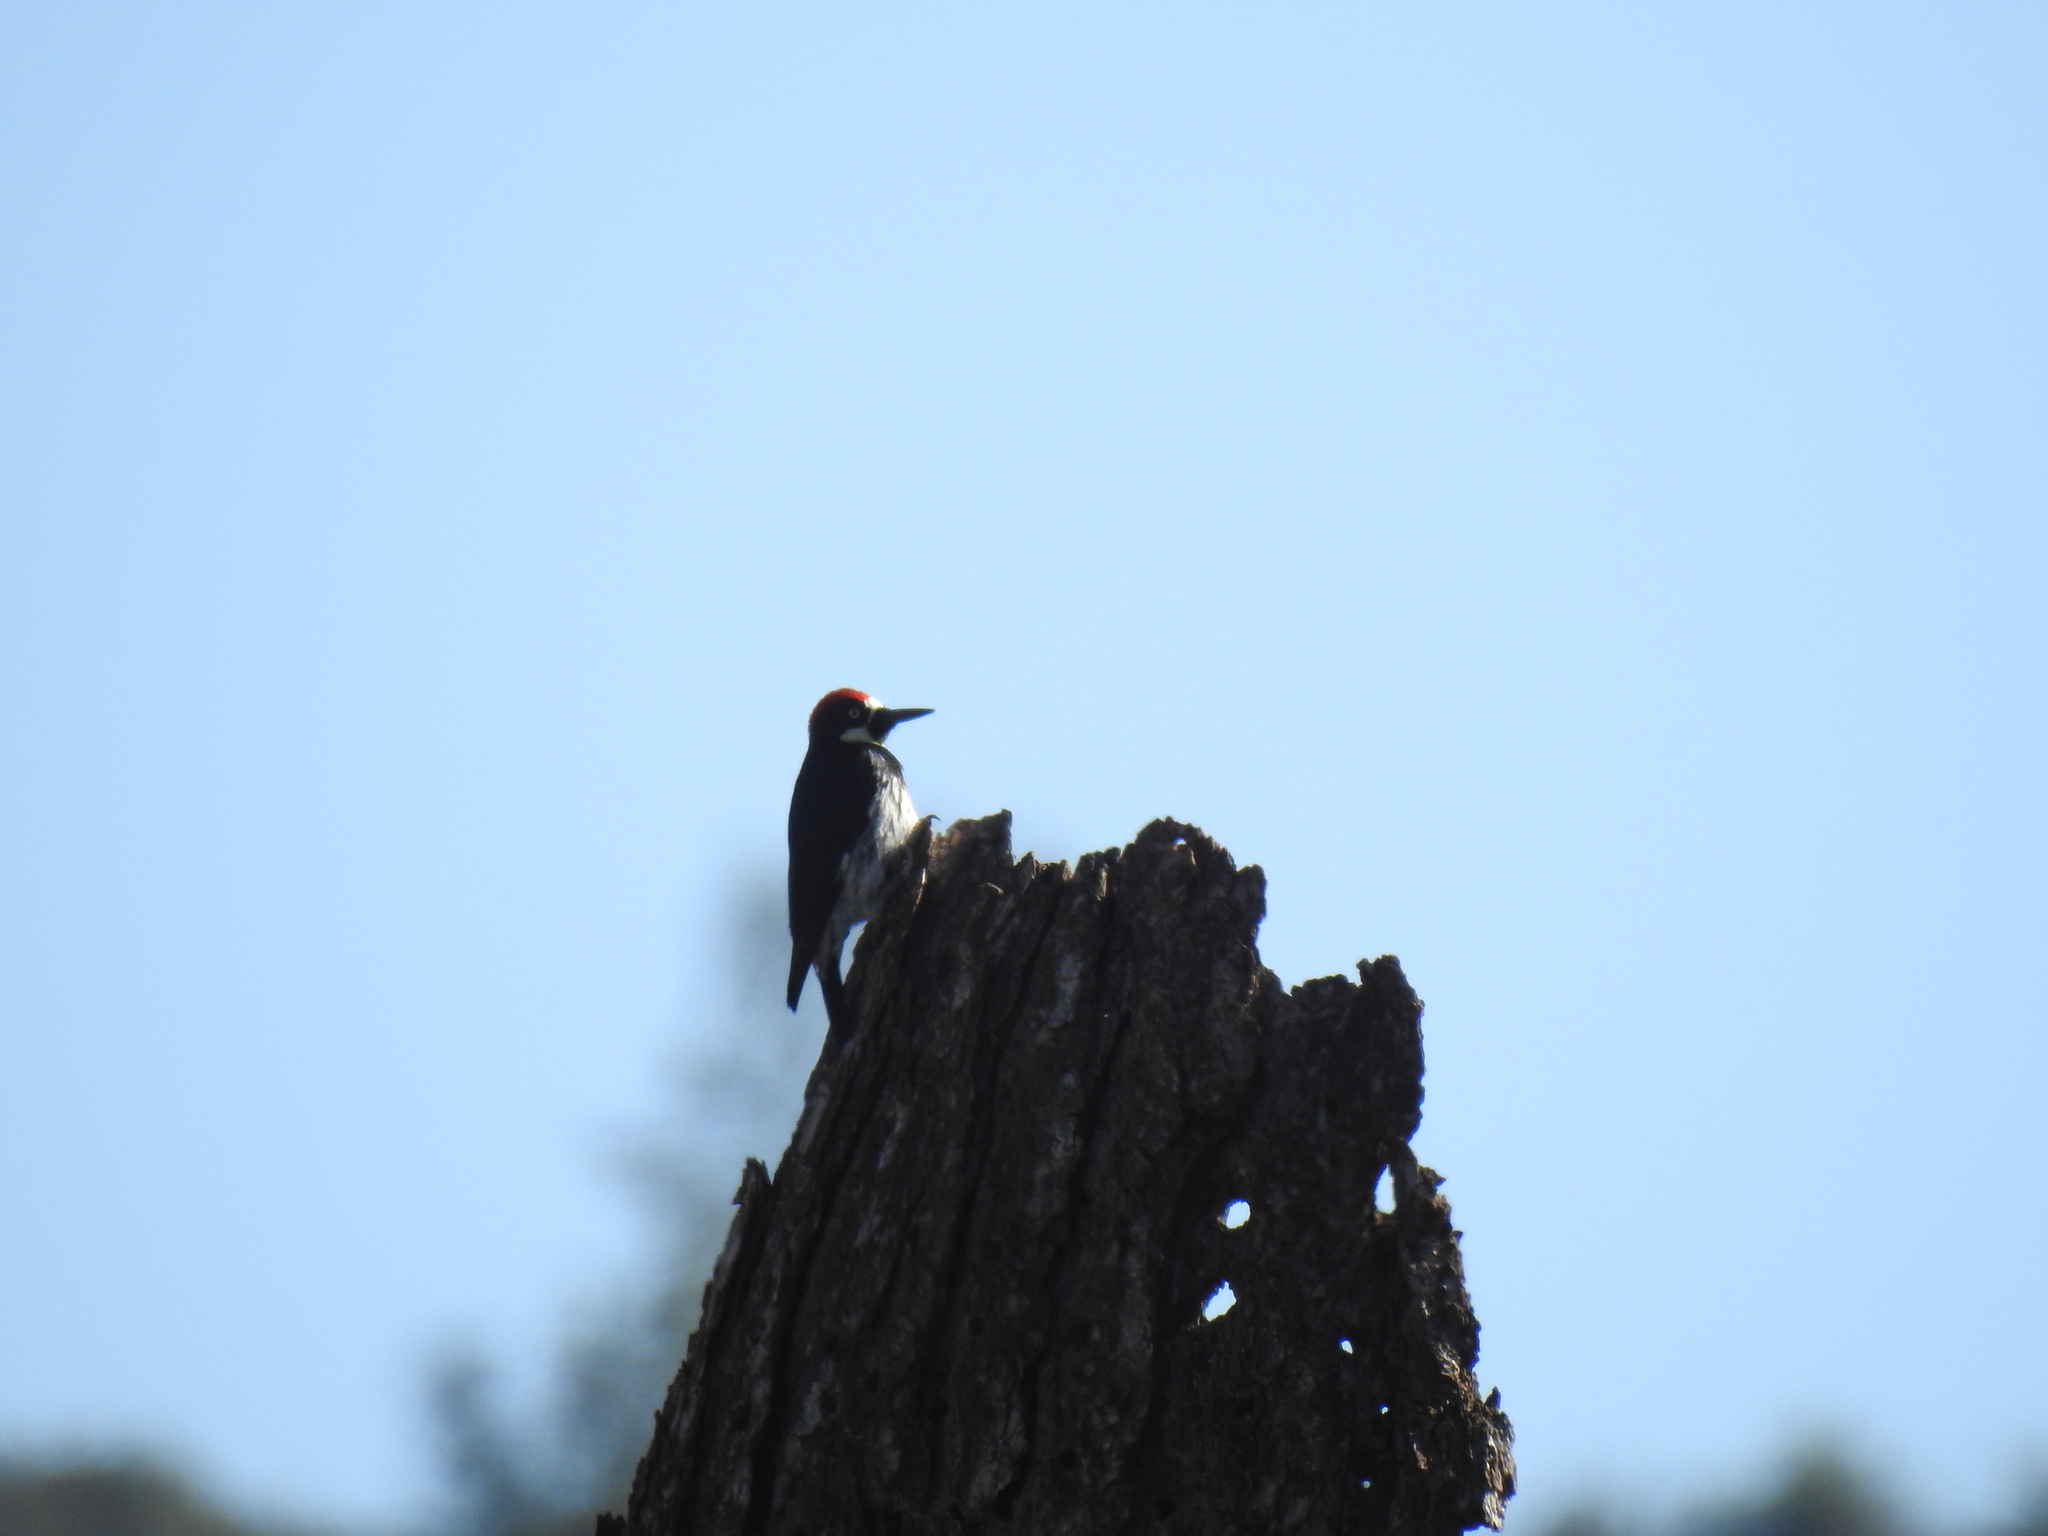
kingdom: Animalia
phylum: Chordata
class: Aves
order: Piciformes
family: Picidae
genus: Melanerpes
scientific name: Melanerpes formicivorus
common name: Acorn woodpecker
